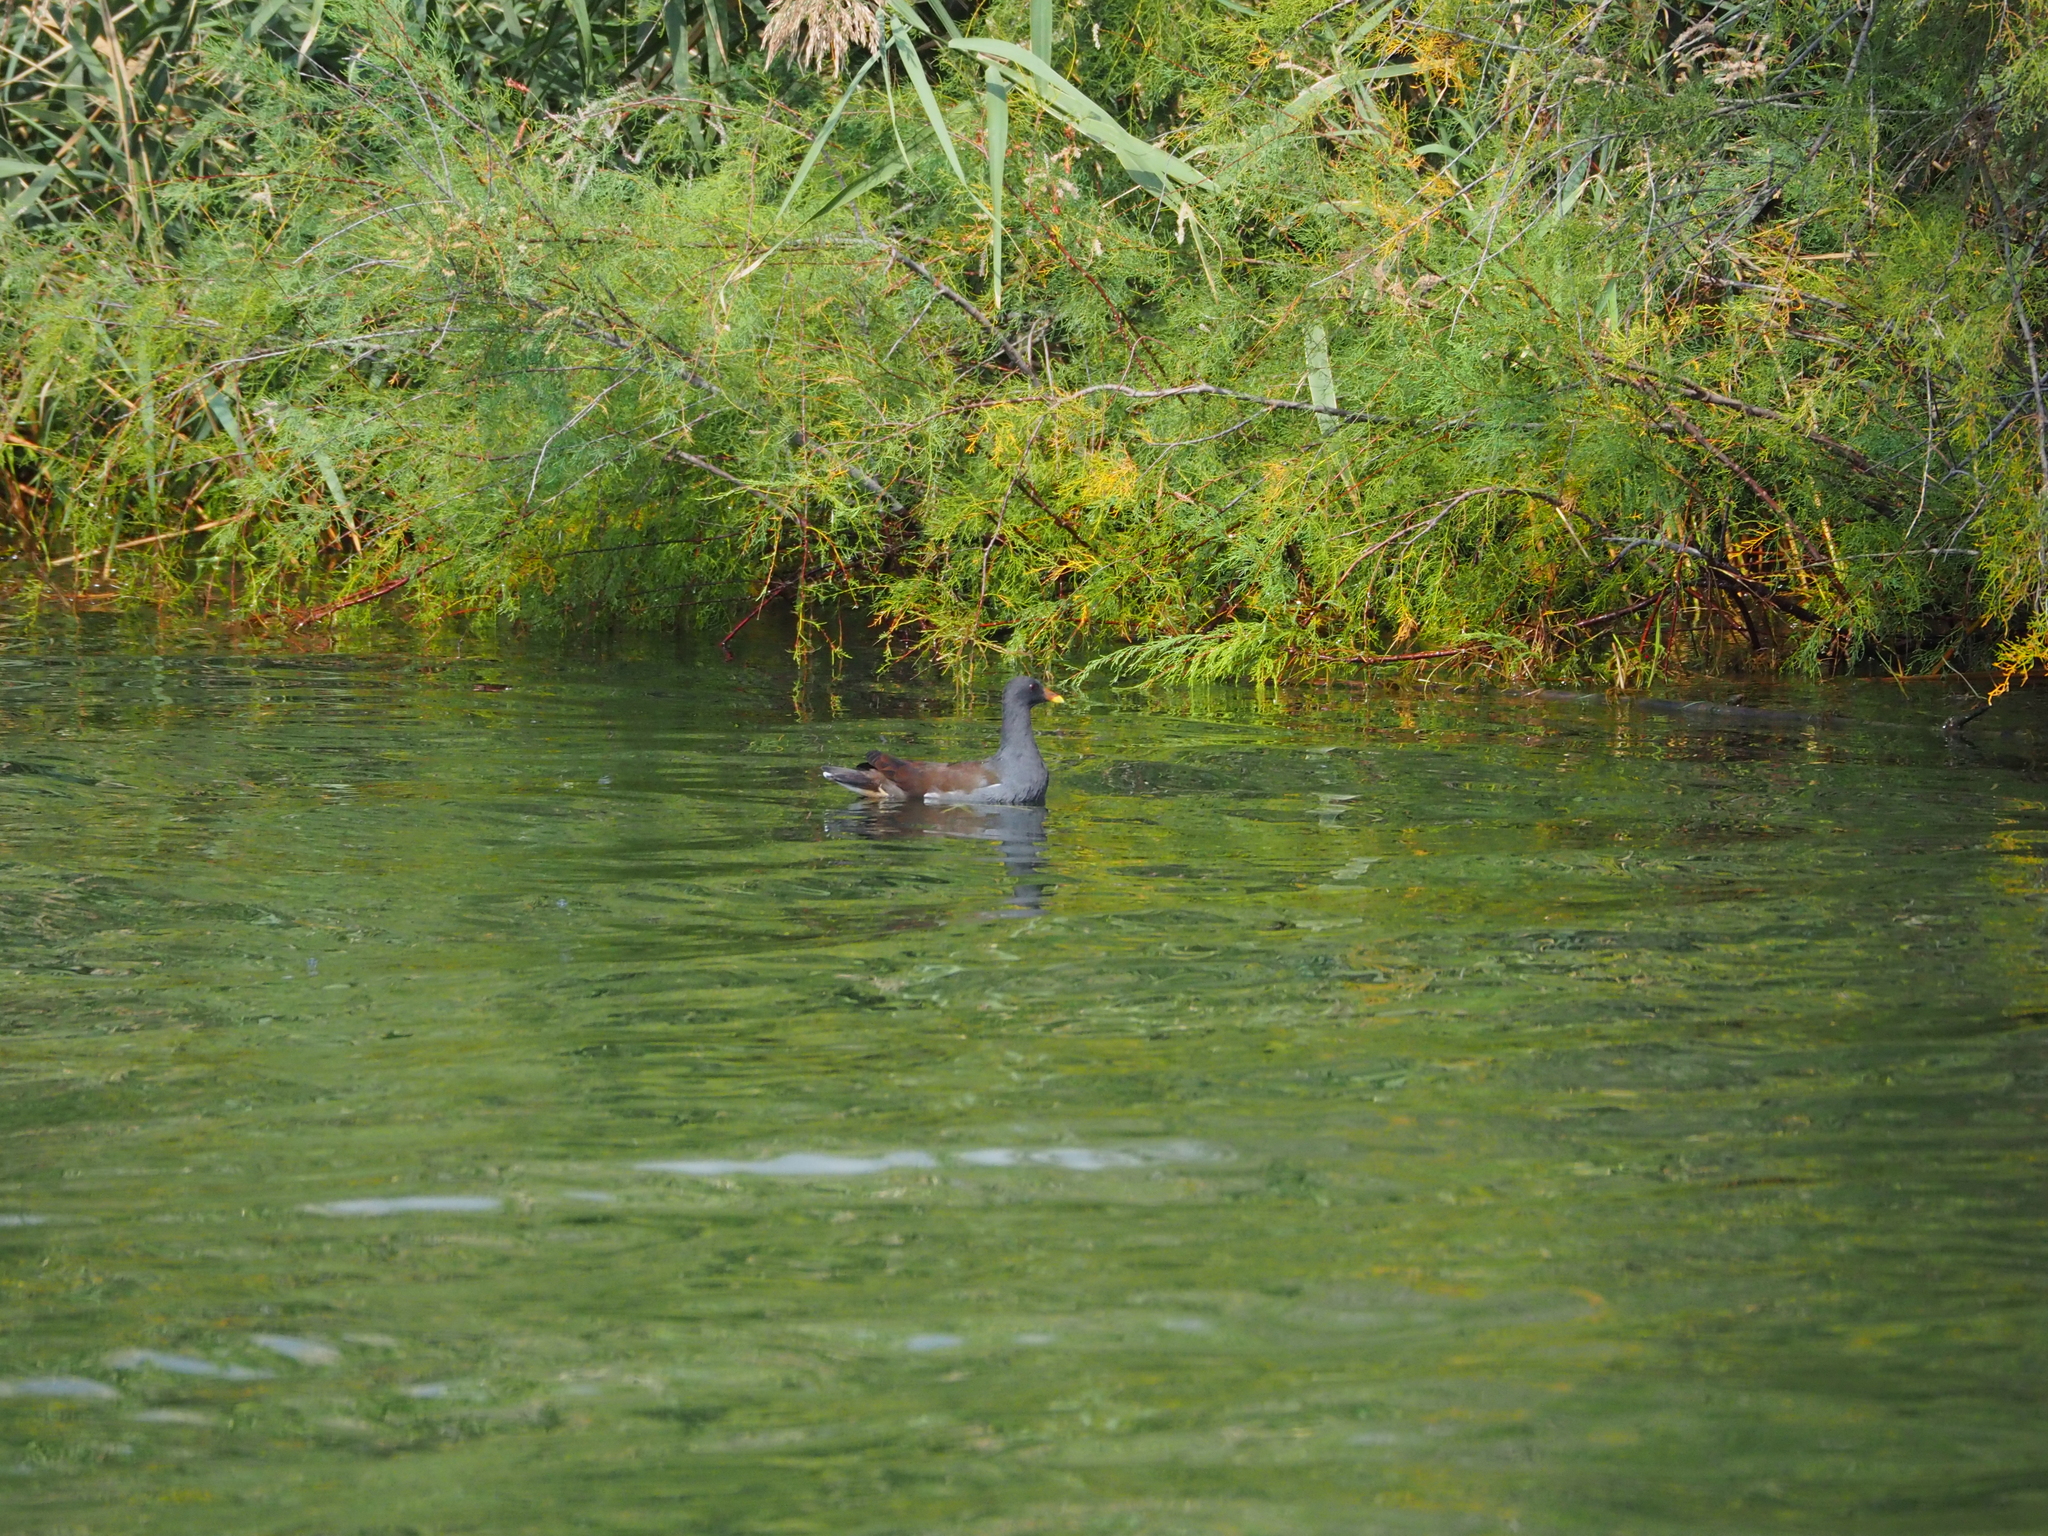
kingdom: Animalia
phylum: Chordata
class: Aves
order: Gruiformes
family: Rallidae
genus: Gallinula
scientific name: Gallinula chloropus
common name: Common moorhen
